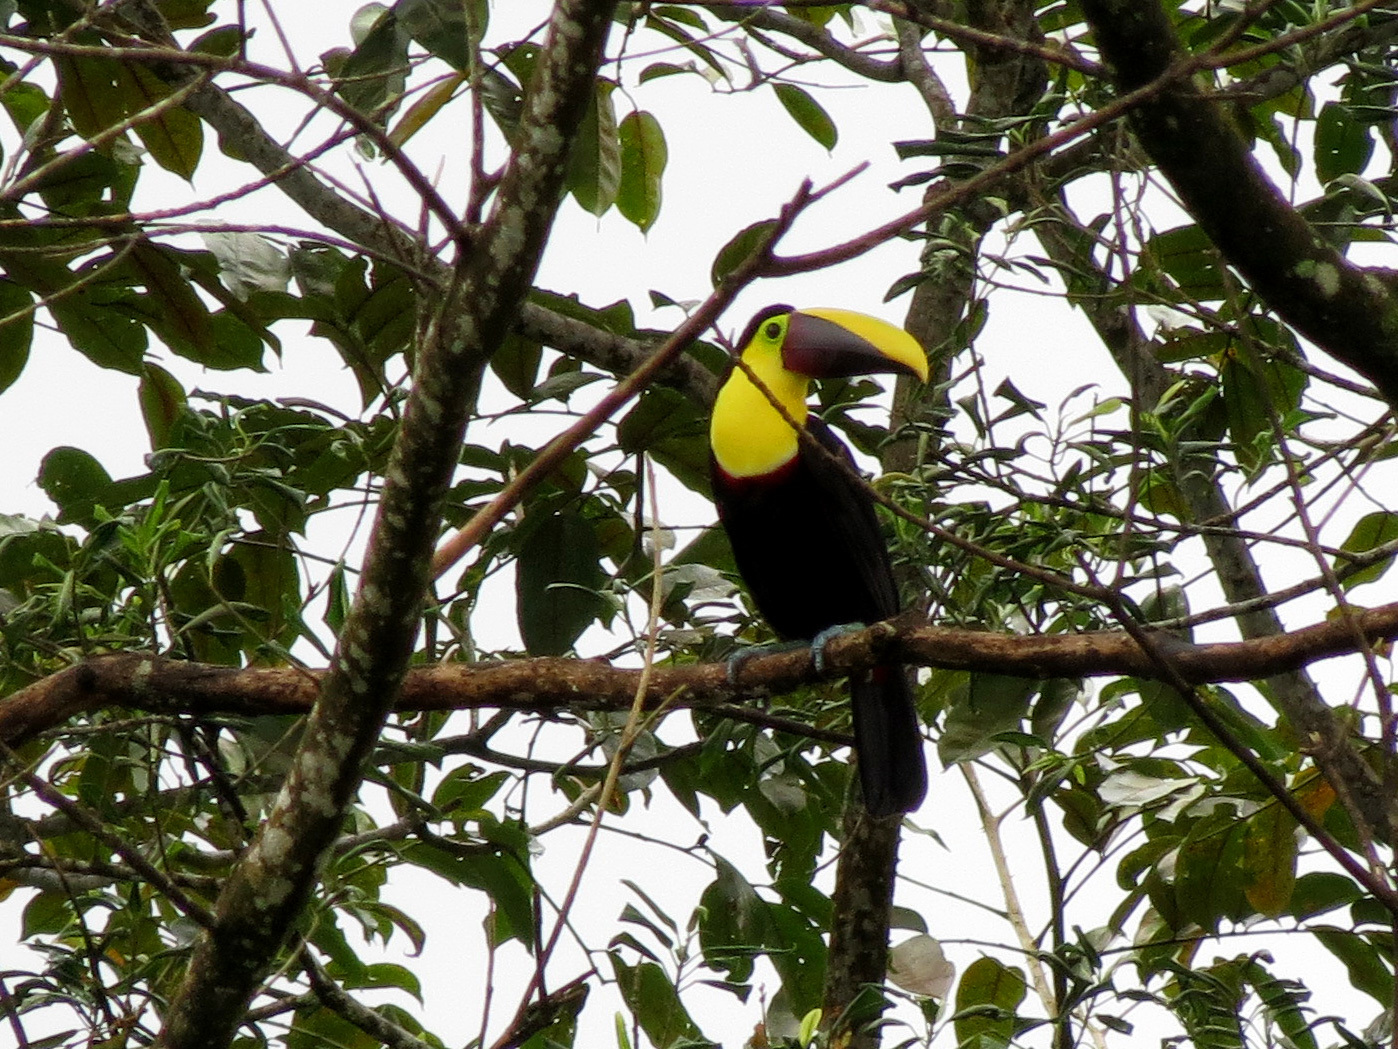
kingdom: Animalia
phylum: Chordata
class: Aves
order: Piciformes
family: Ramphastidae
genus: Ramphastos
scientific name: Ramphastos ambiguus
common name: Yellow-throated toucan
